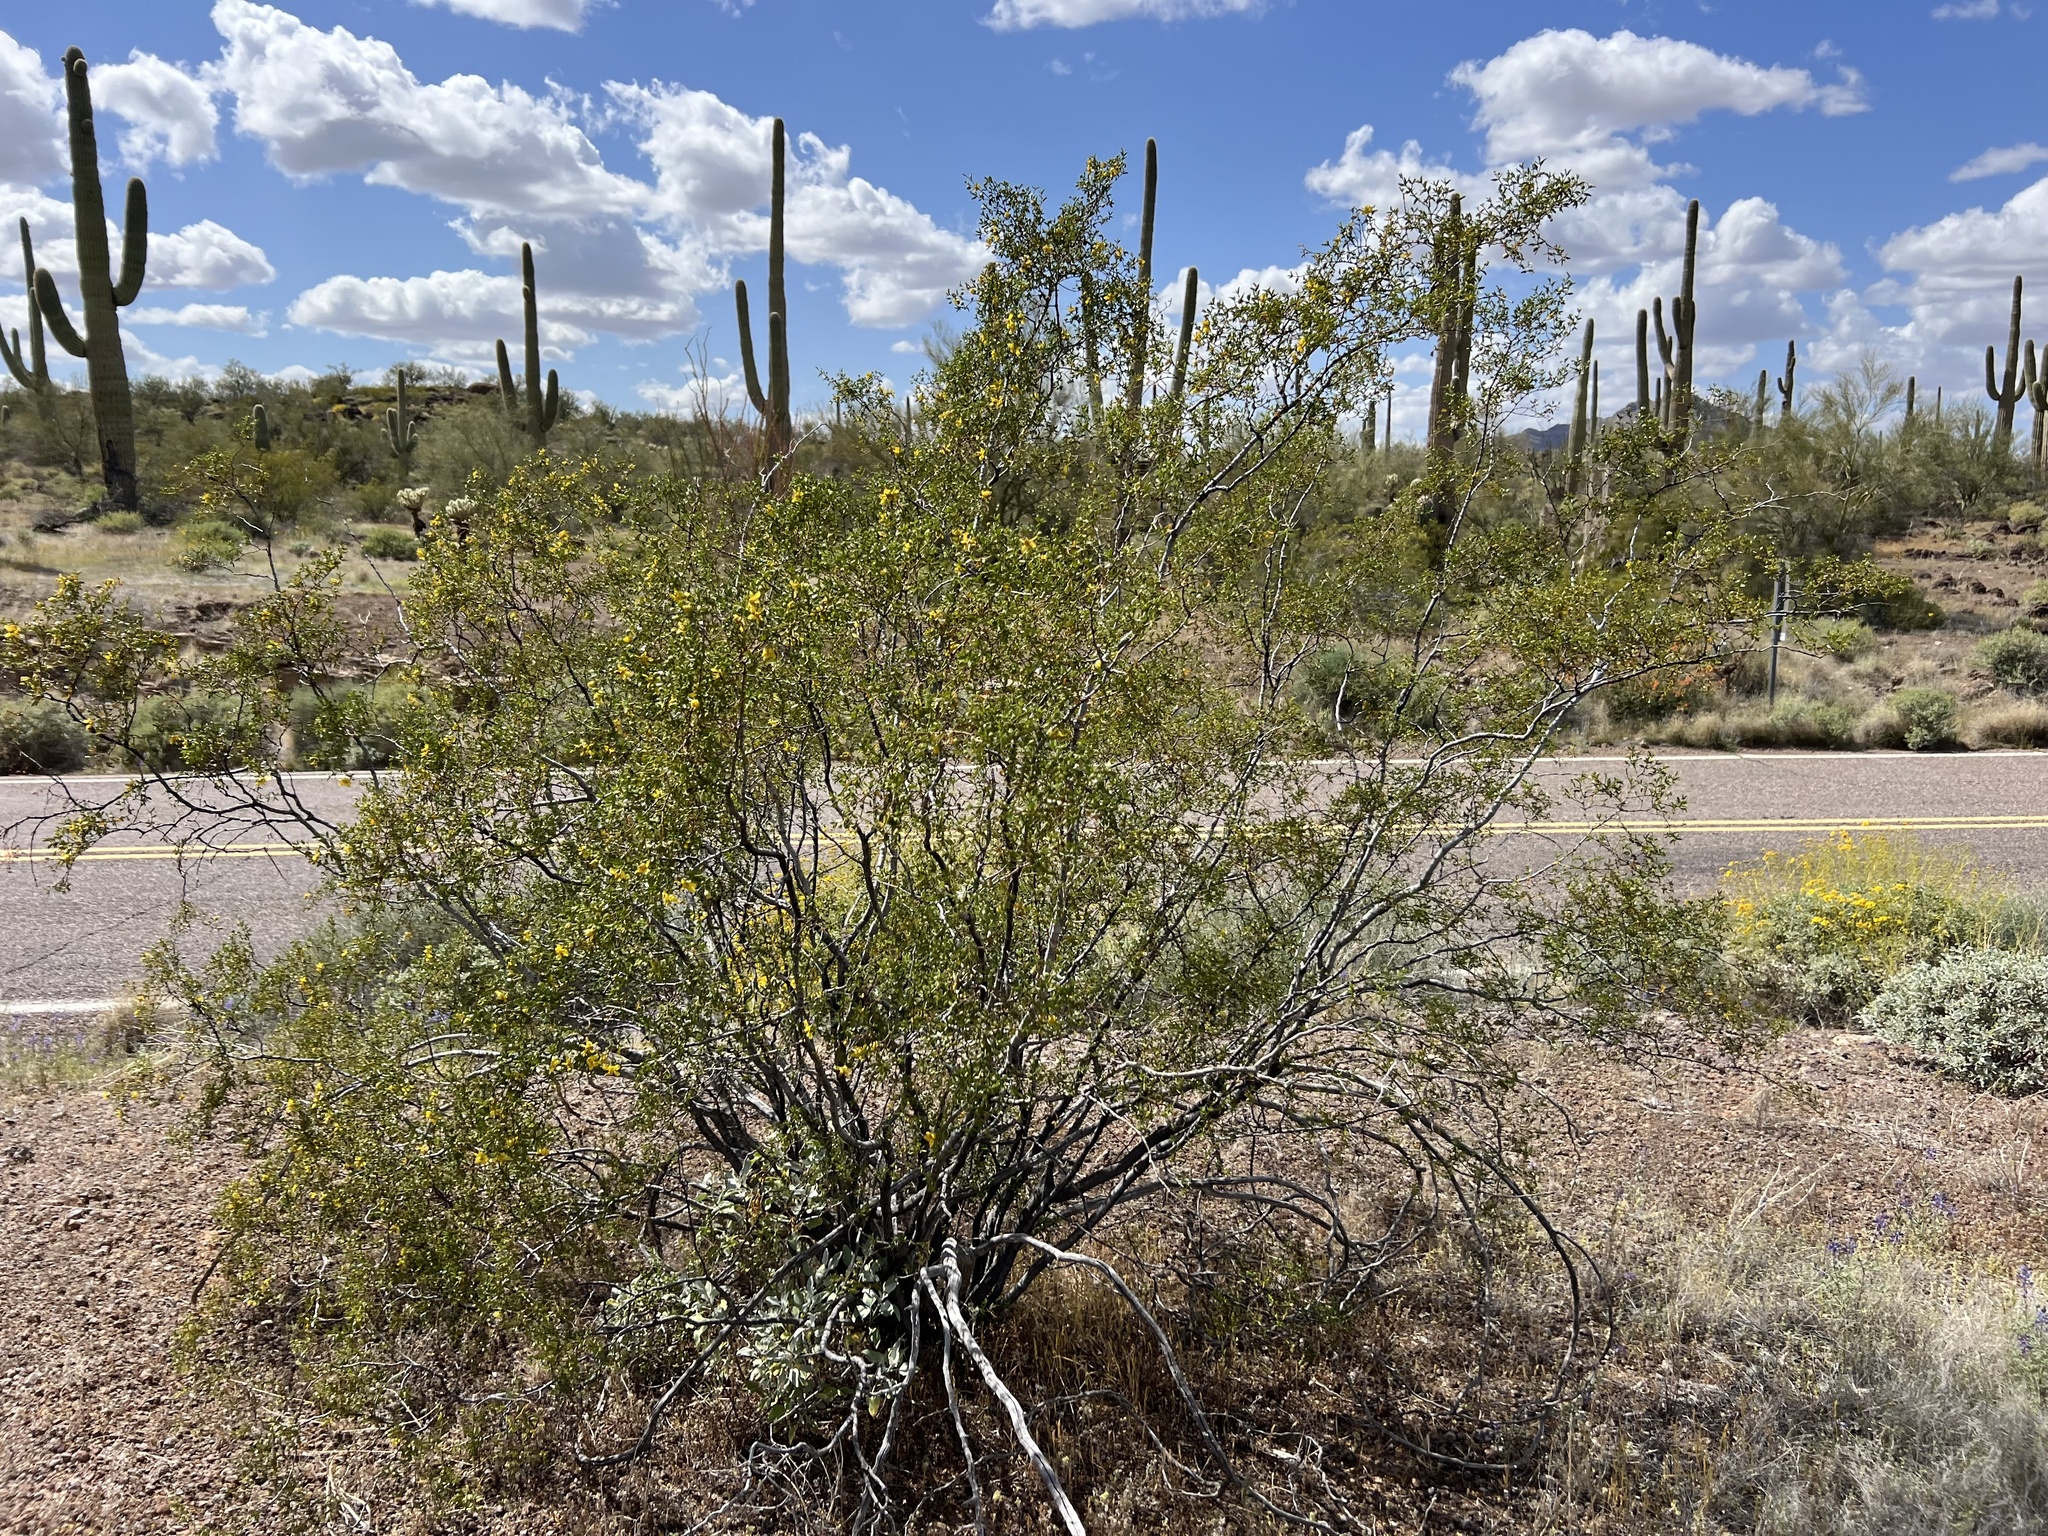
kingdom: Plantae
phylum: Tracheophyta
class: Magnoliopsida
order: Zygophyllales
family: Zygophyllaceae
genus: Larrea
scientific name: Larrea tridentata
